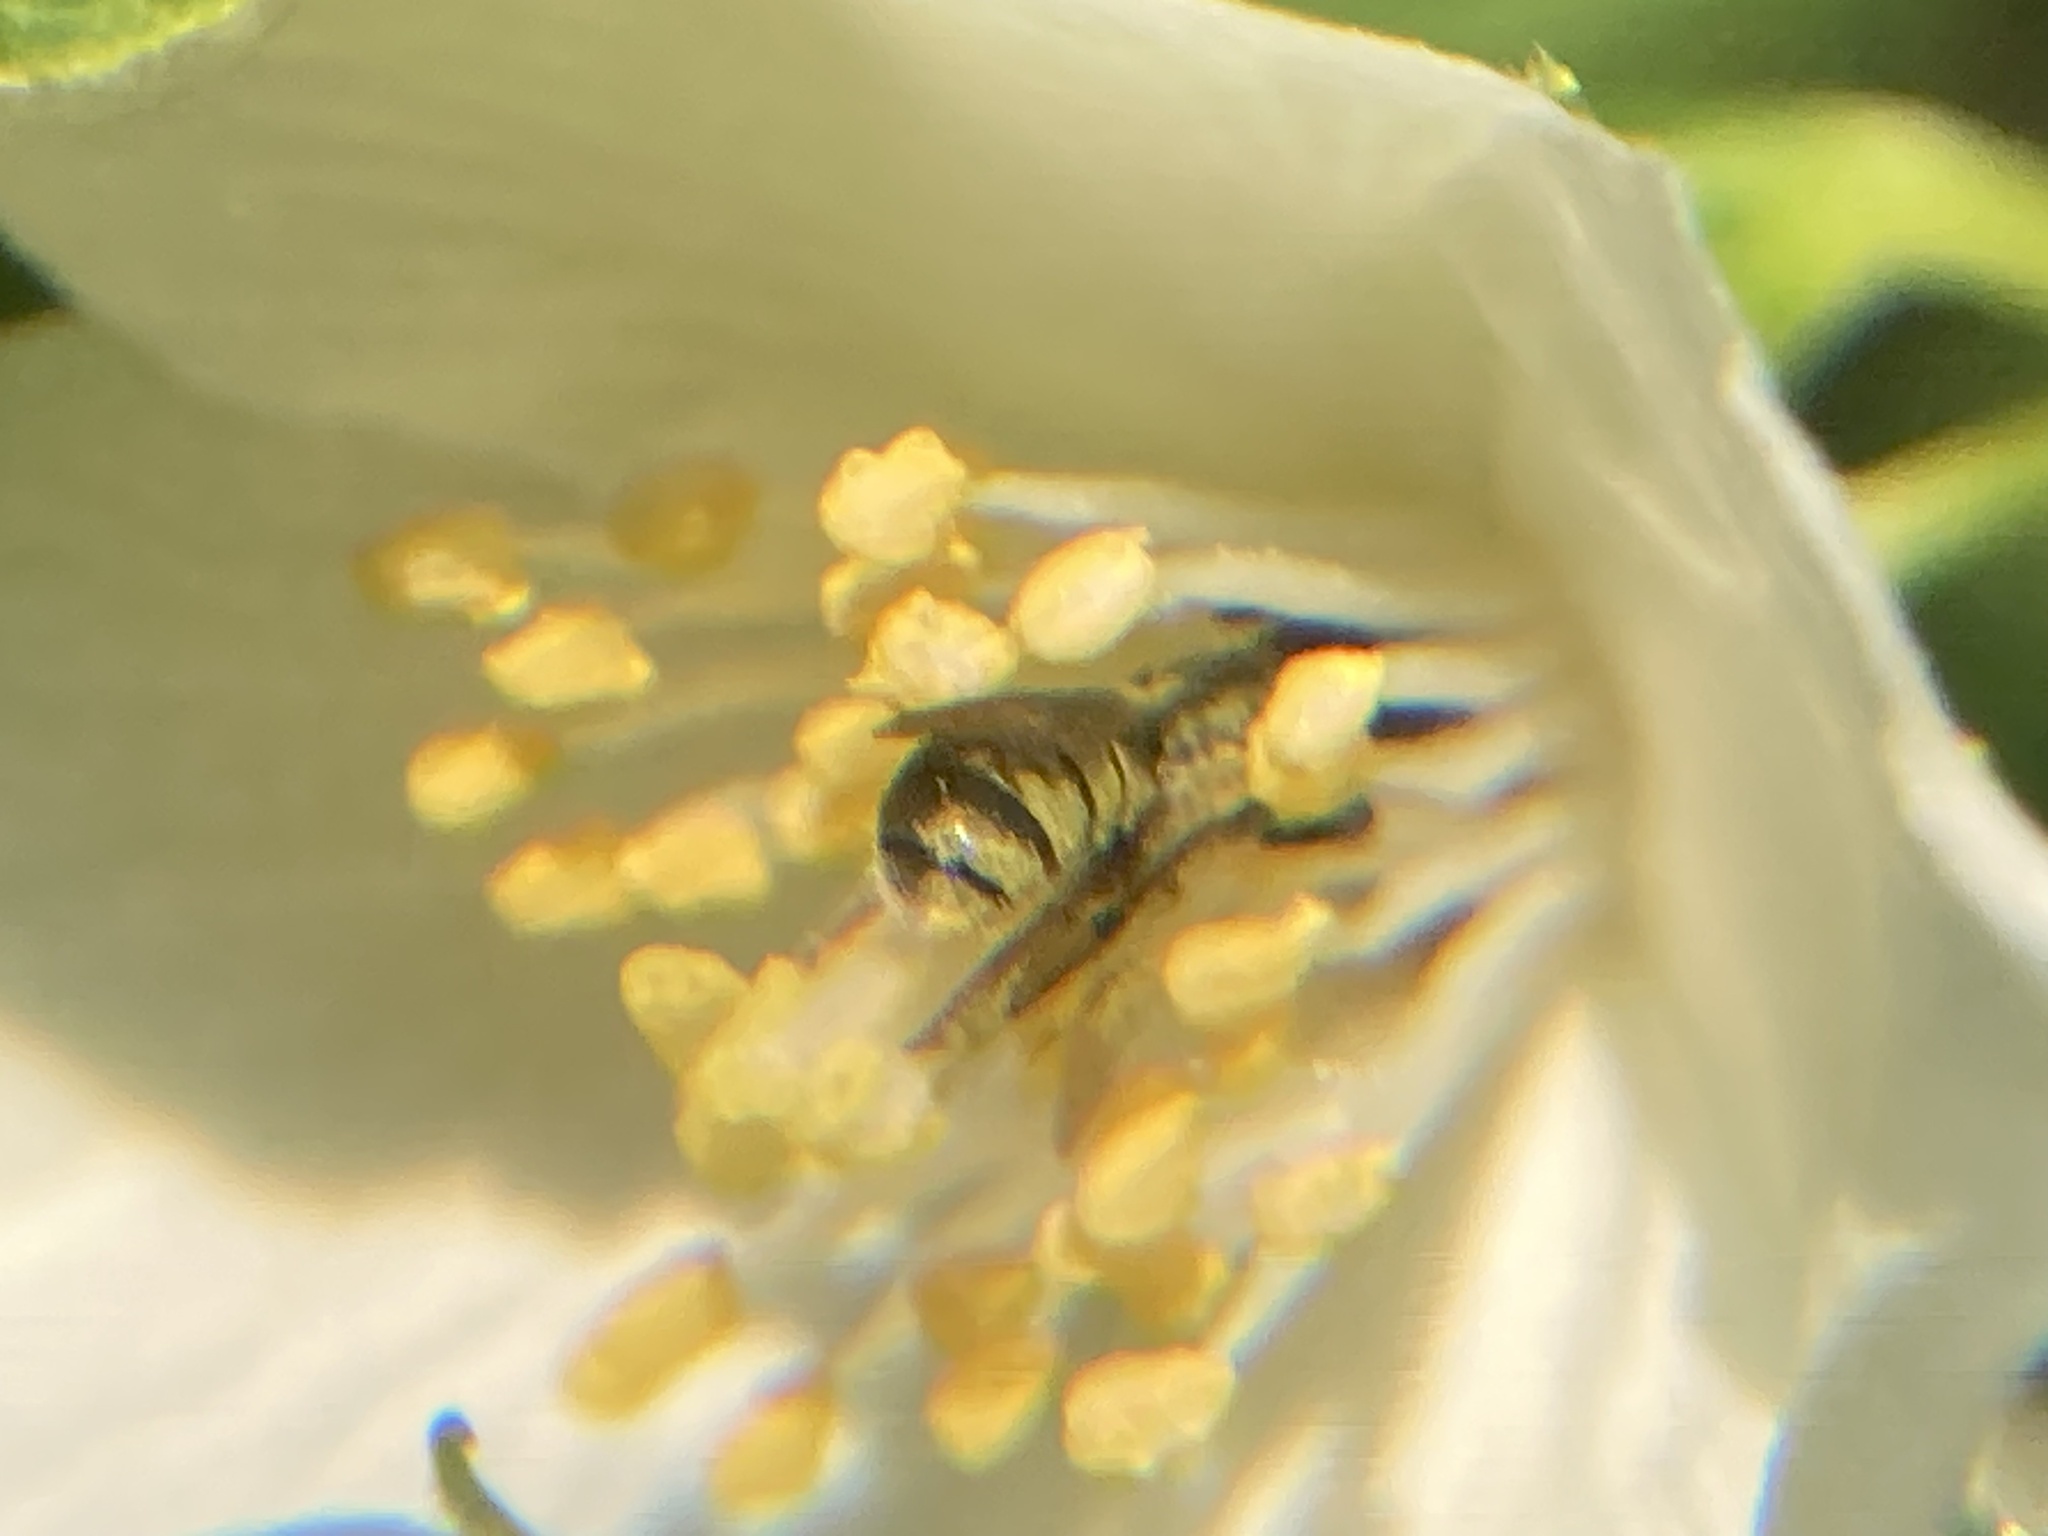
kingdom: Animalia
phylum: Arthropoda
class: Insecta
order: Hymenoptera
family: Megachilidae
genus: Chelostoma
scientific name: Chelostoma philadelphi
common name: Mock-orange scissor bee
